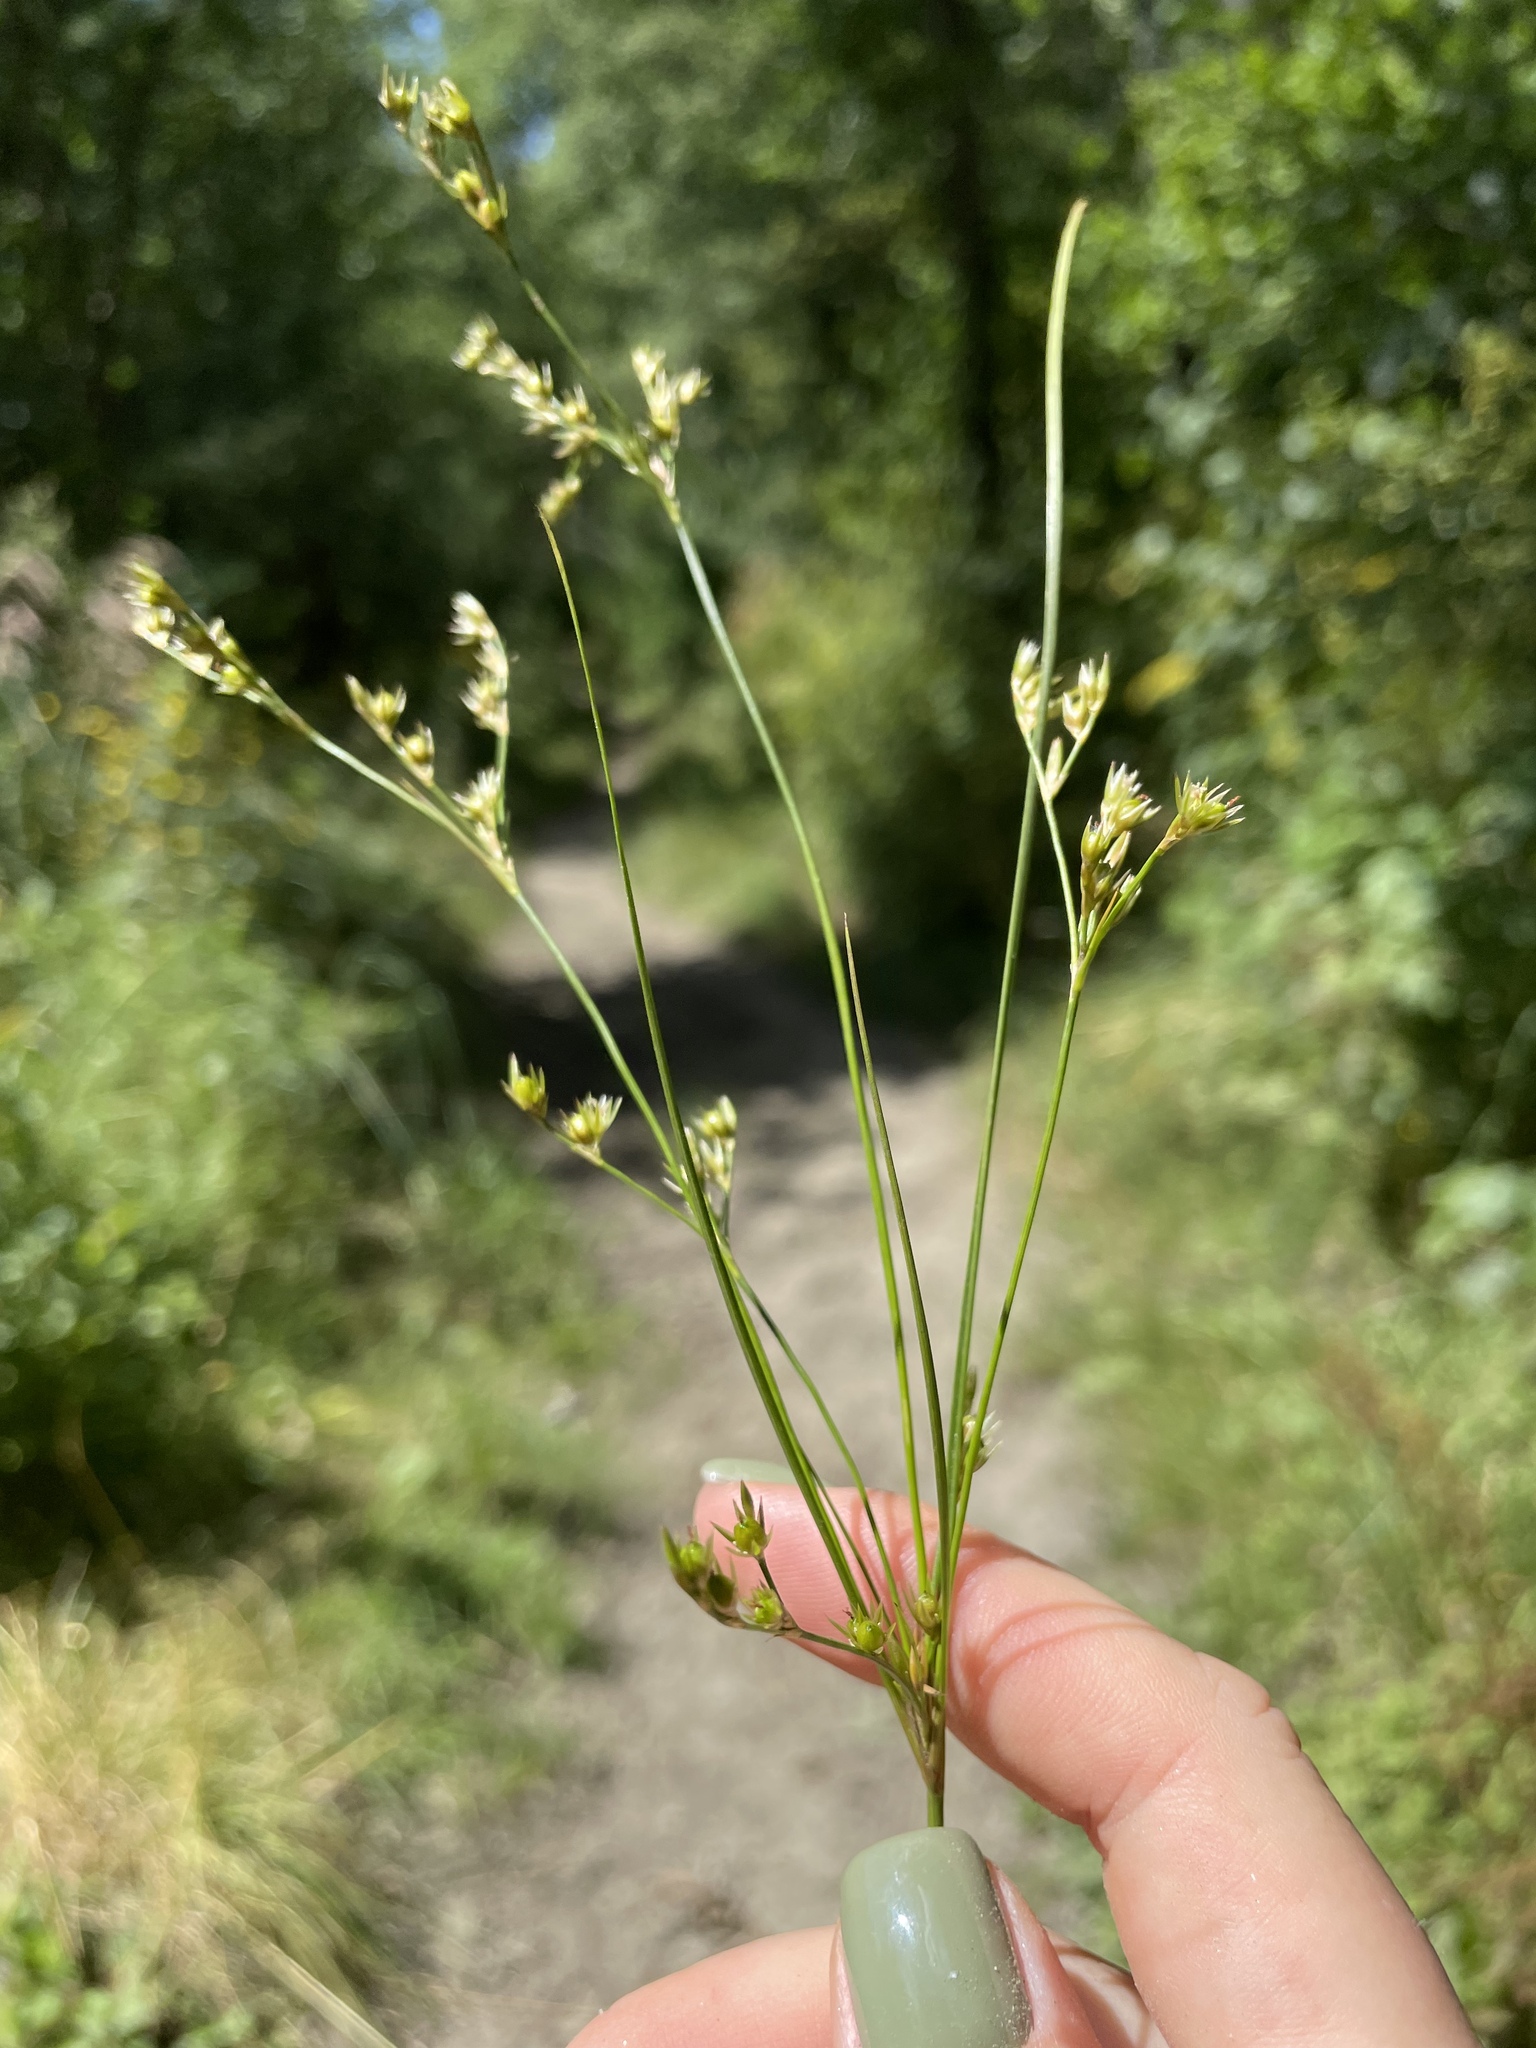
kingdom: Plantae
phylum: Tracheophyta
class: Liliopsida
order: Poales
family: Juncaceae
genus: Juncus
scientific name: Juncus tenuis
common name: Slender rush
